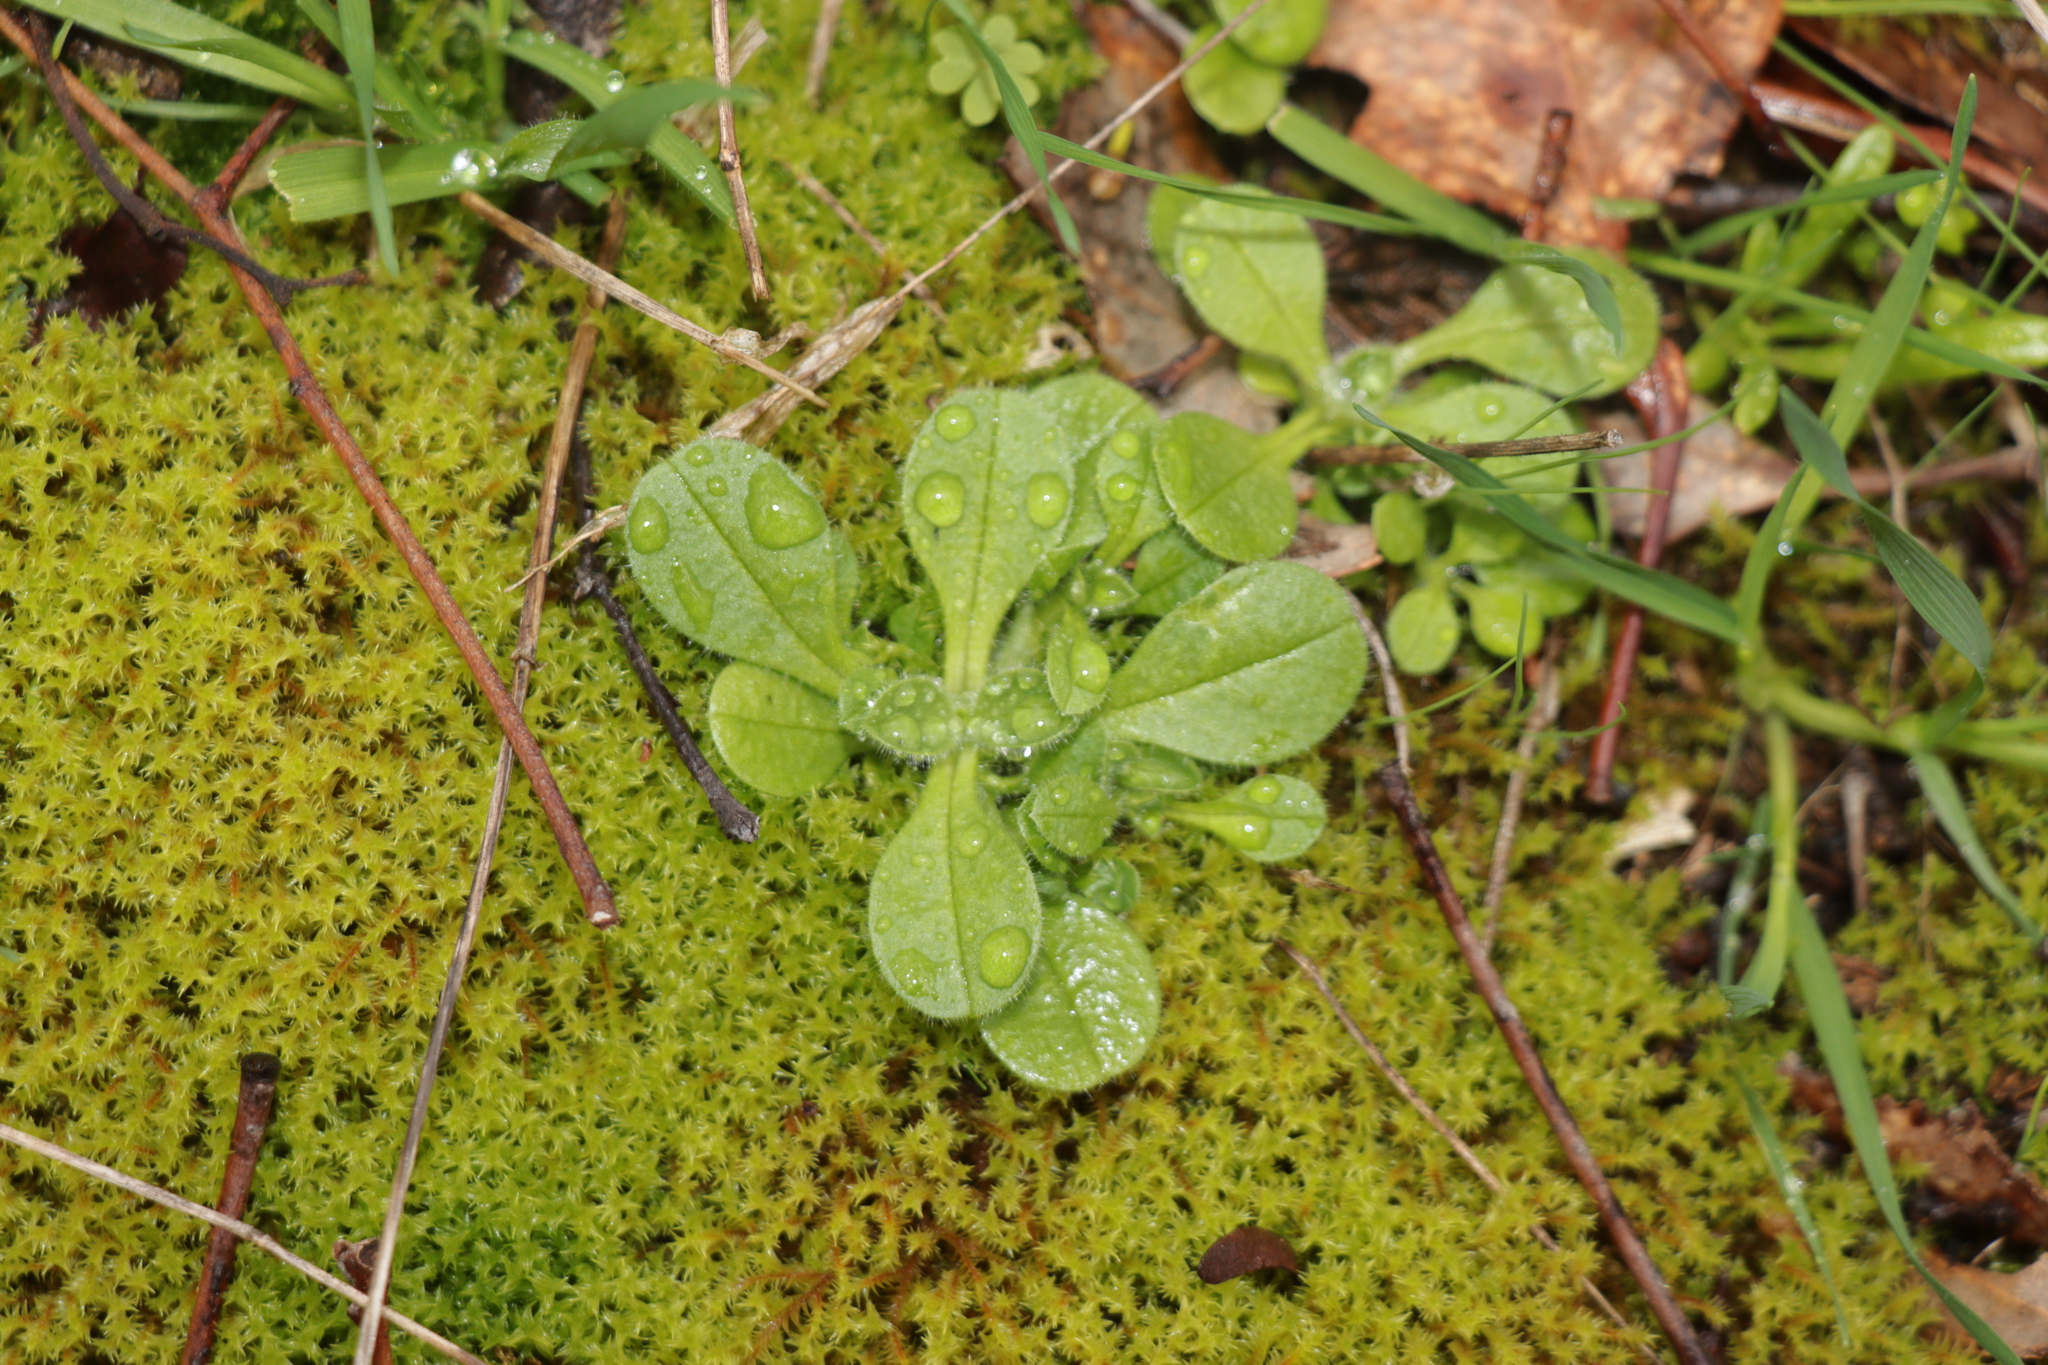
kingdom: Plantae
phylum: Tracheophyta
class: Magnoliopsida
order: Caryophyllales
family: Caryophyllaceae
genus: Cerastium
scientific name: Cerastium glomeratum
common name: Sticky chickweed
